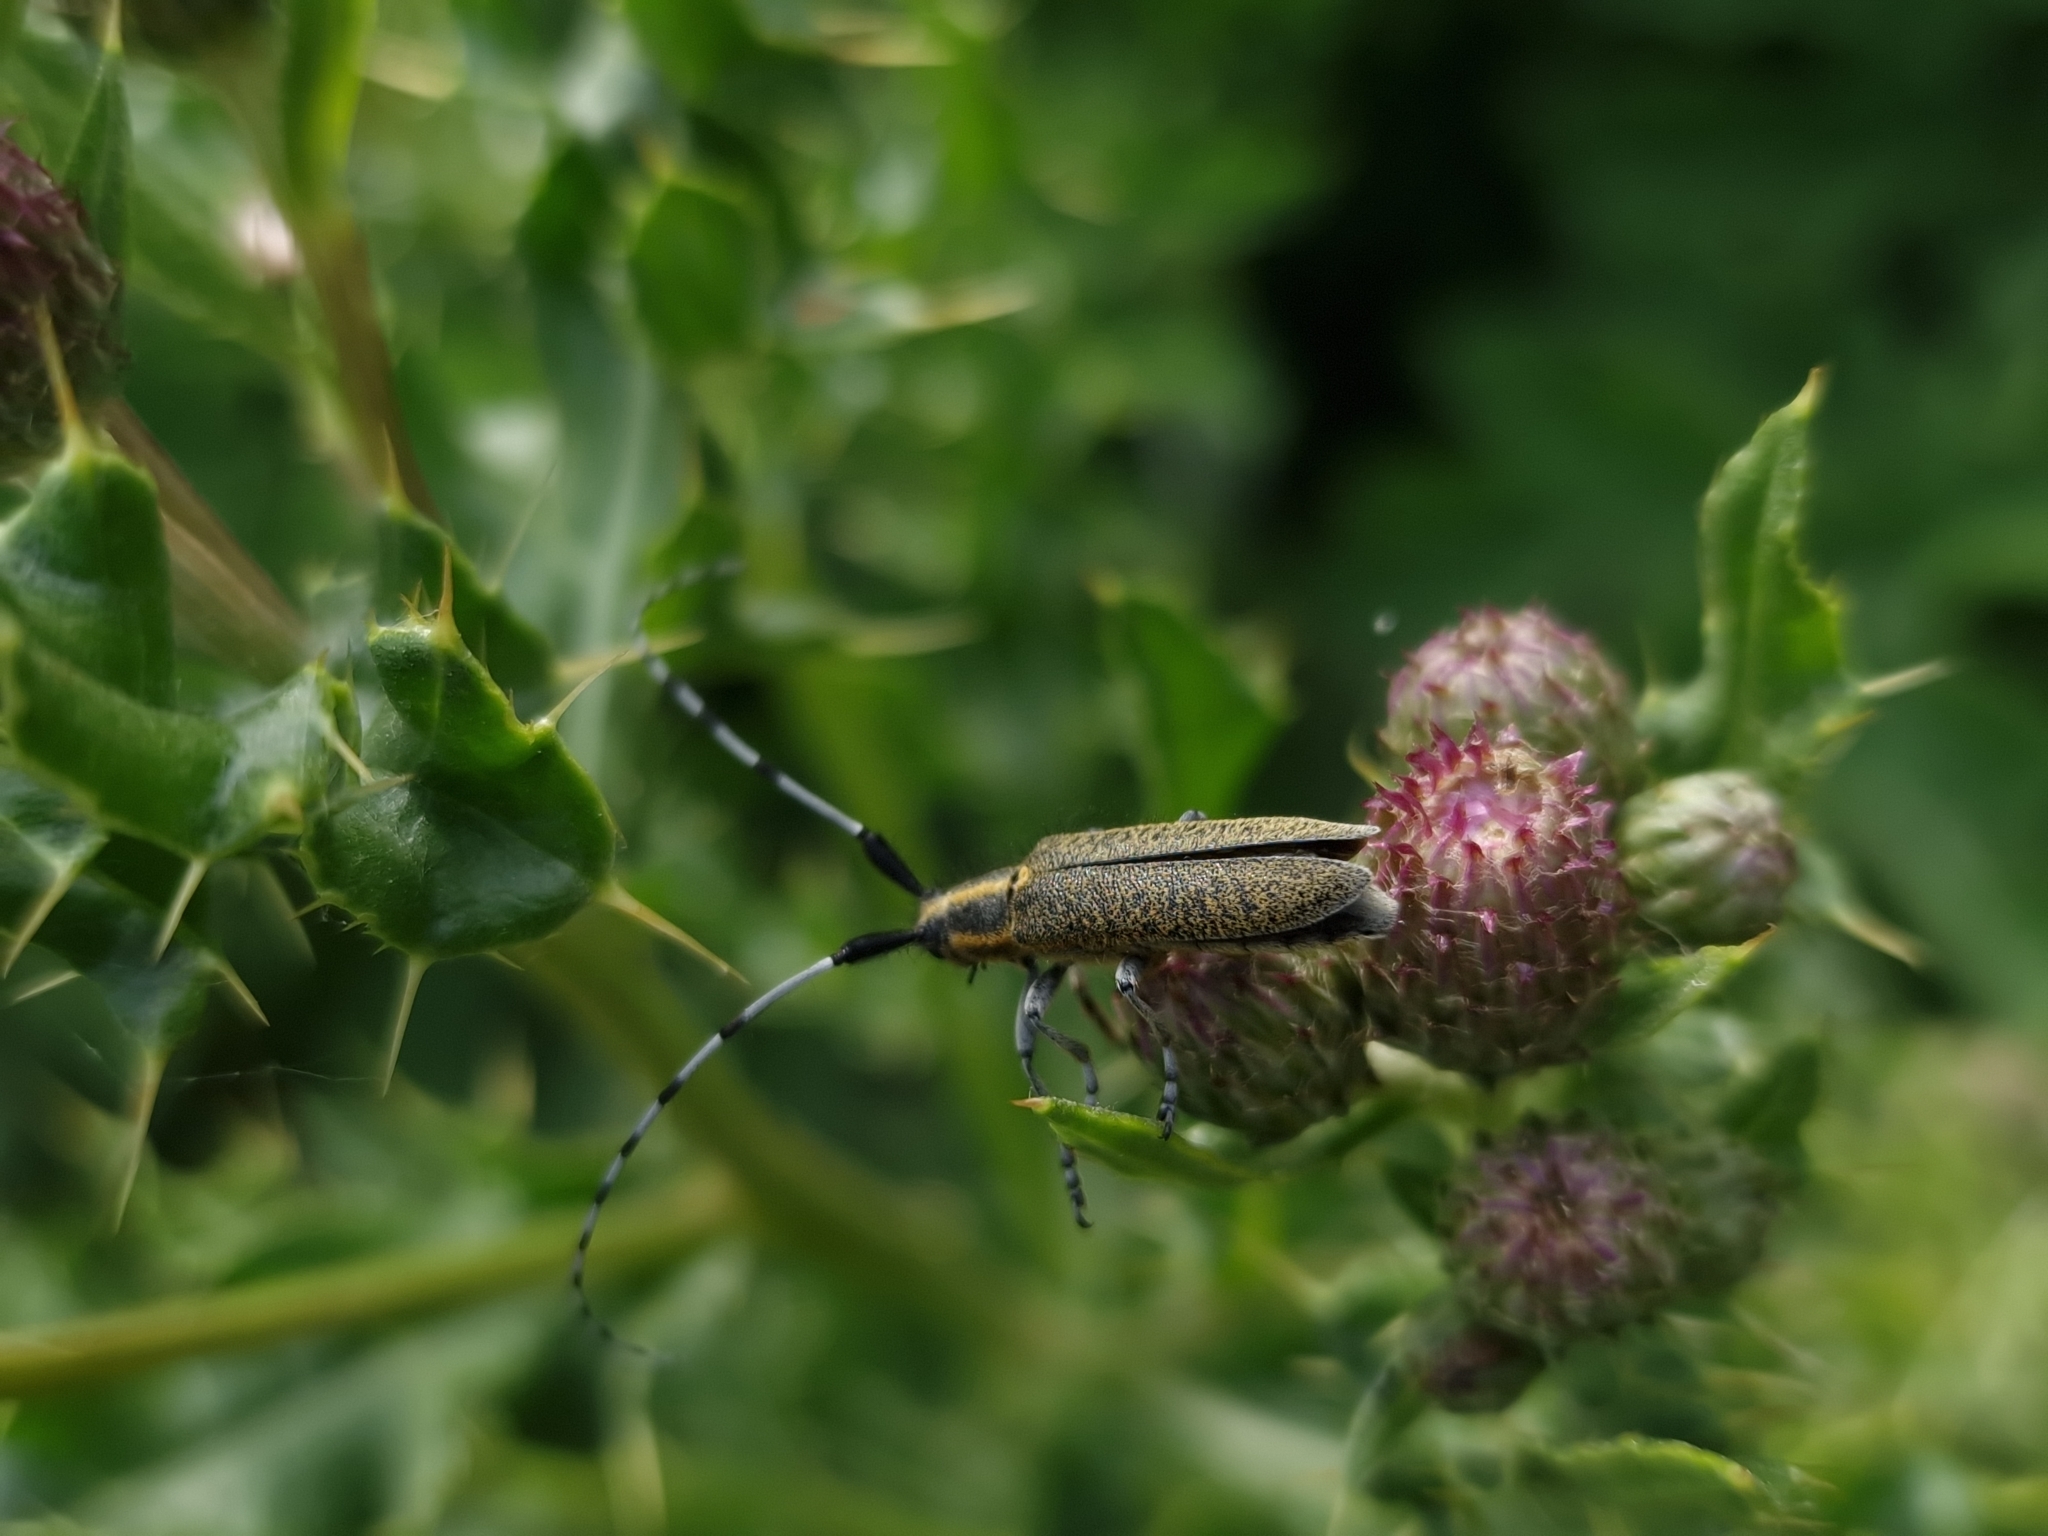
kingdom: Animalia
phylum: Arthropoda
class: Insecta
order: Coleoptera
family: Cerambycidae
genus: Agapanthia
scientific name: Agapanthia villosoviridescens
